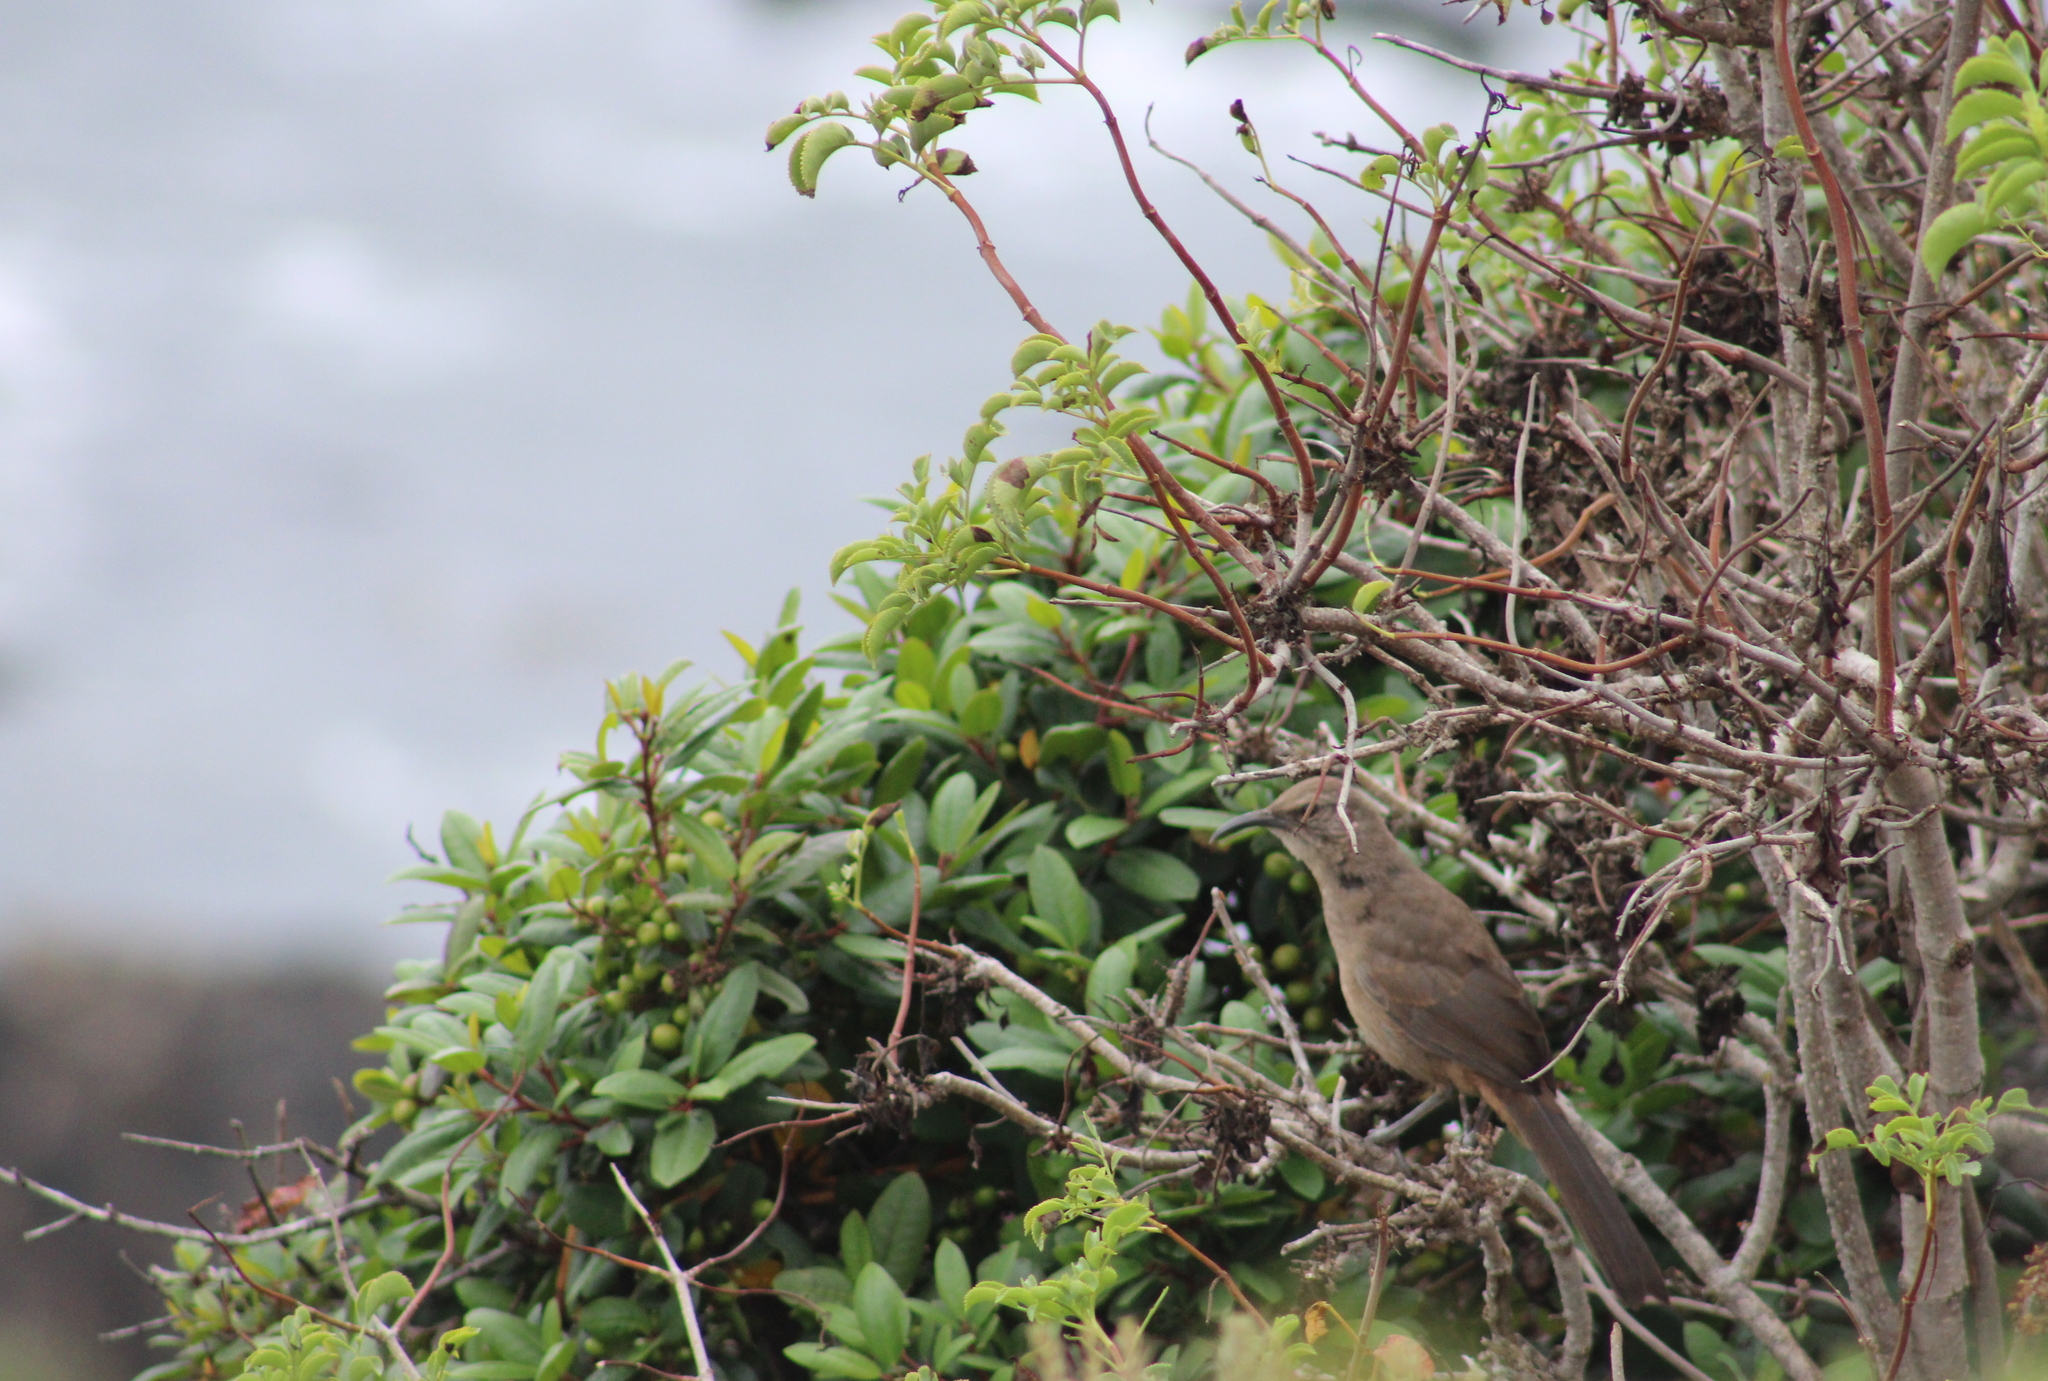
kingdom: Animalia
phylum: Chordata
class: Aves
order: Passeriformes
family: Mimidae
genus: Toxostoma
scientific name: Toxostoma redivivum
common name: California thrasher
